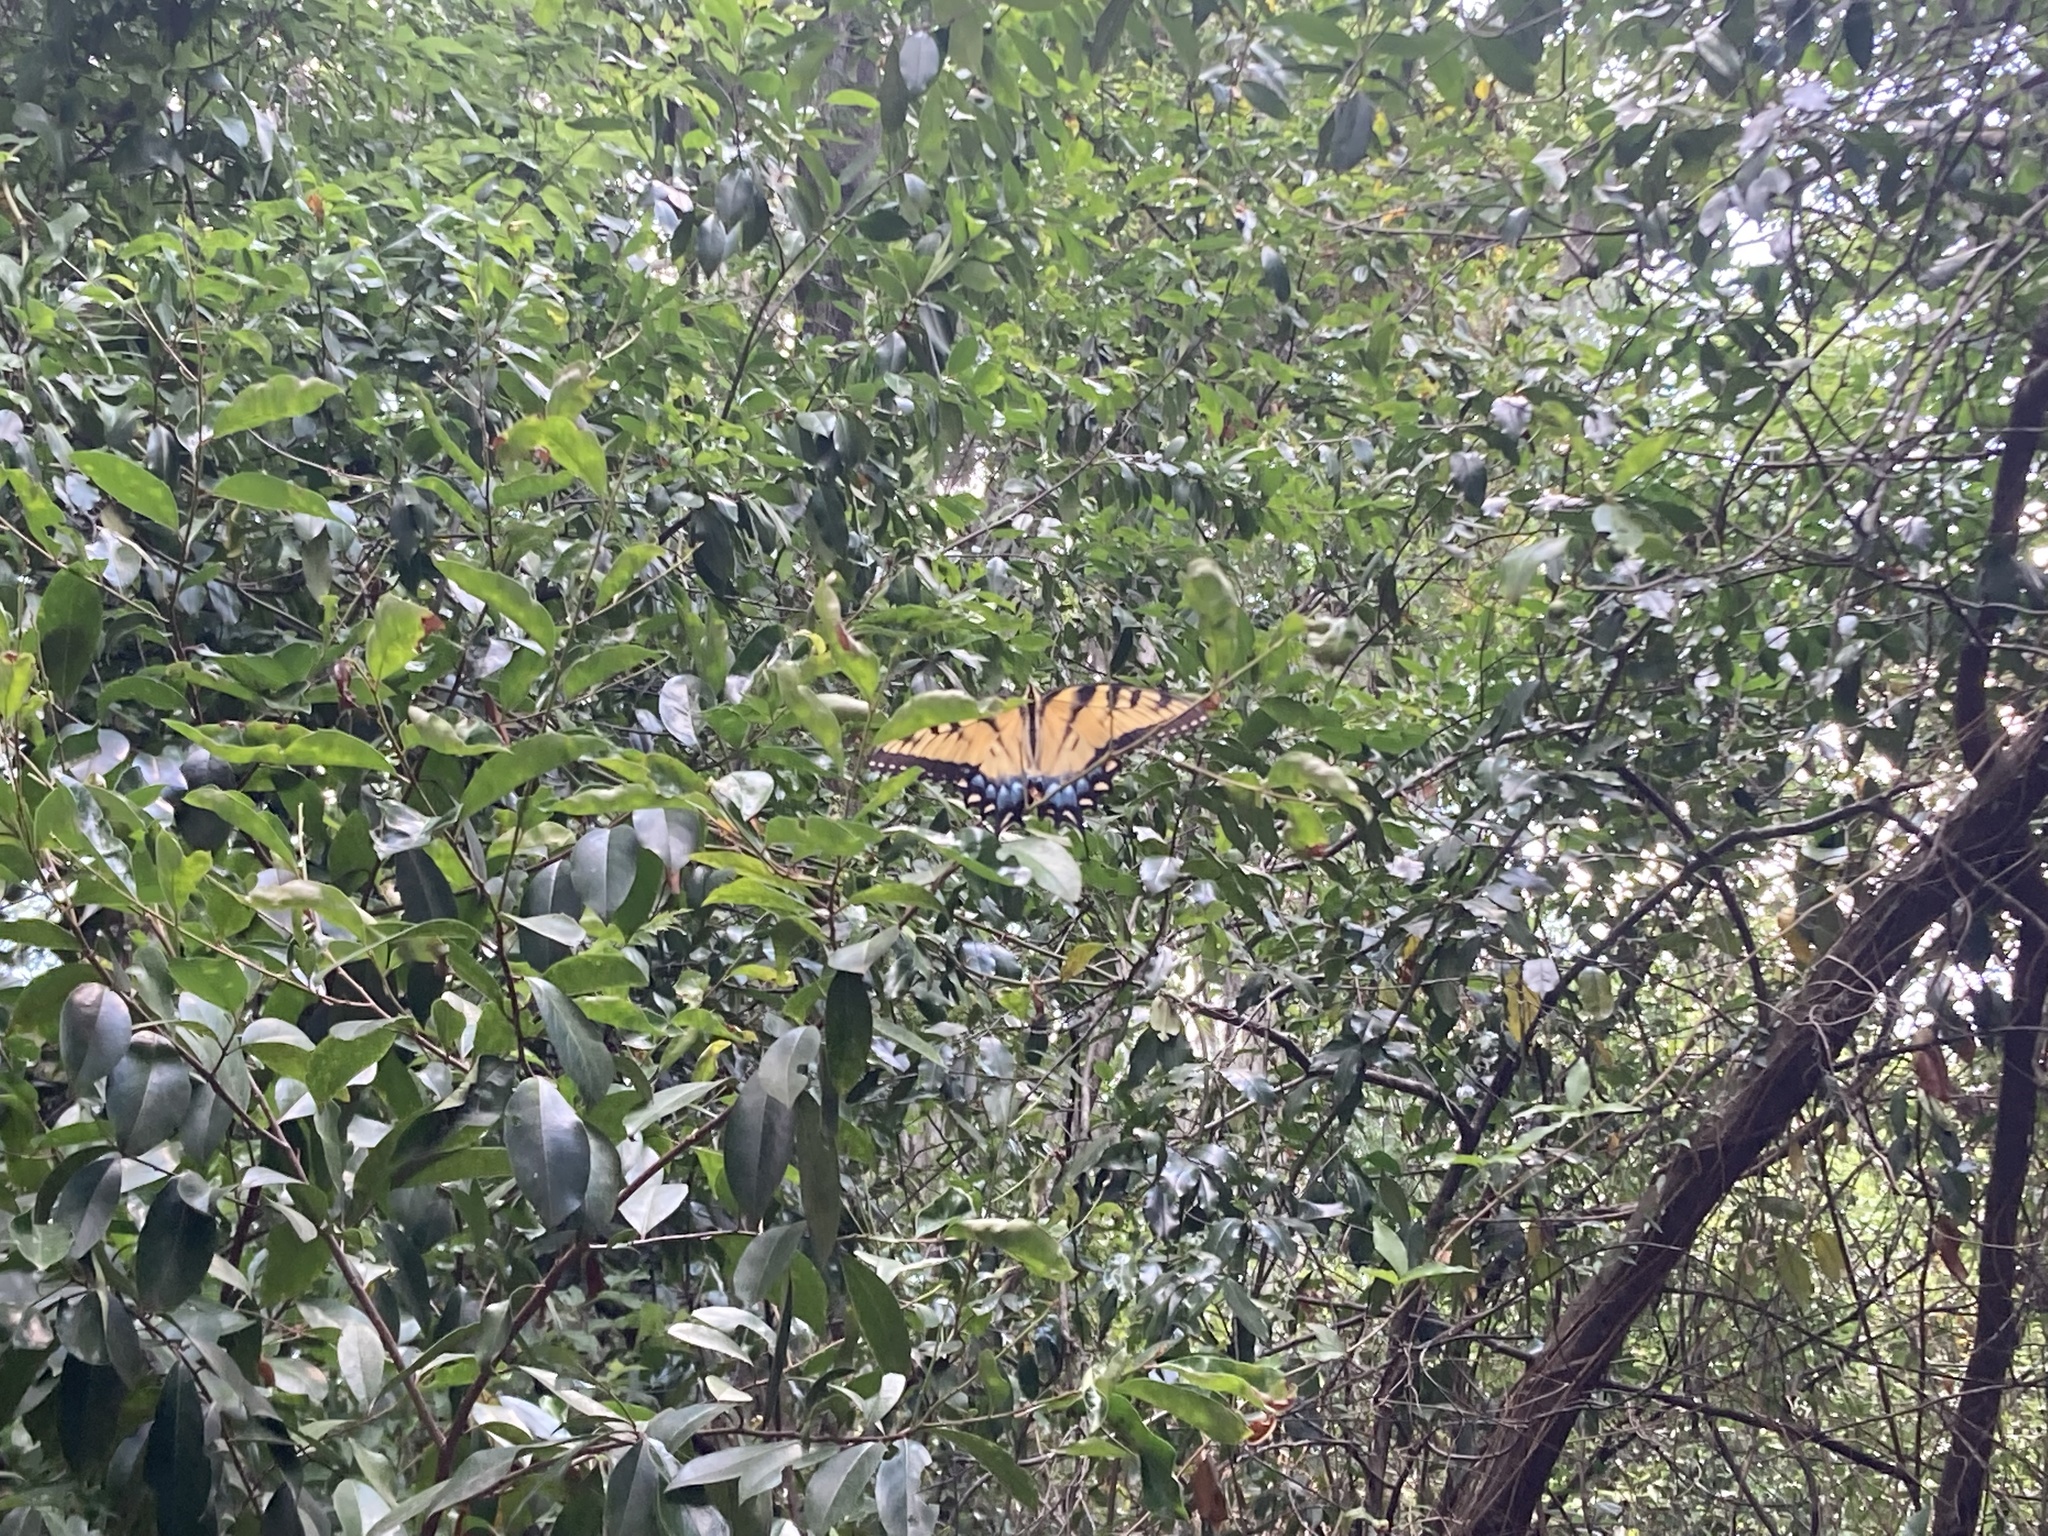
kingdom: Animalia
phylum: Arthropoda
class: Insecta
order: Lepidoptera
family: Papilionidae
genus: Papilio
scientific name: Papilio glaucus
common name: Tiger swallowtail
